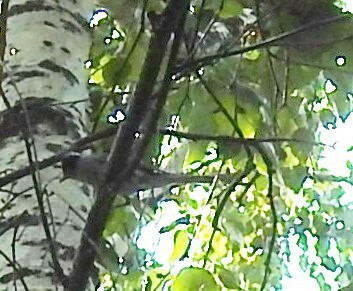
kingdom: Animalia
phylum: Chordata
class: Aves
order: Passeriformes
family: Sylviidae
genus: Sylvia
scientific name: Sylvia atricapilla
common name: Eurasian blackcap
